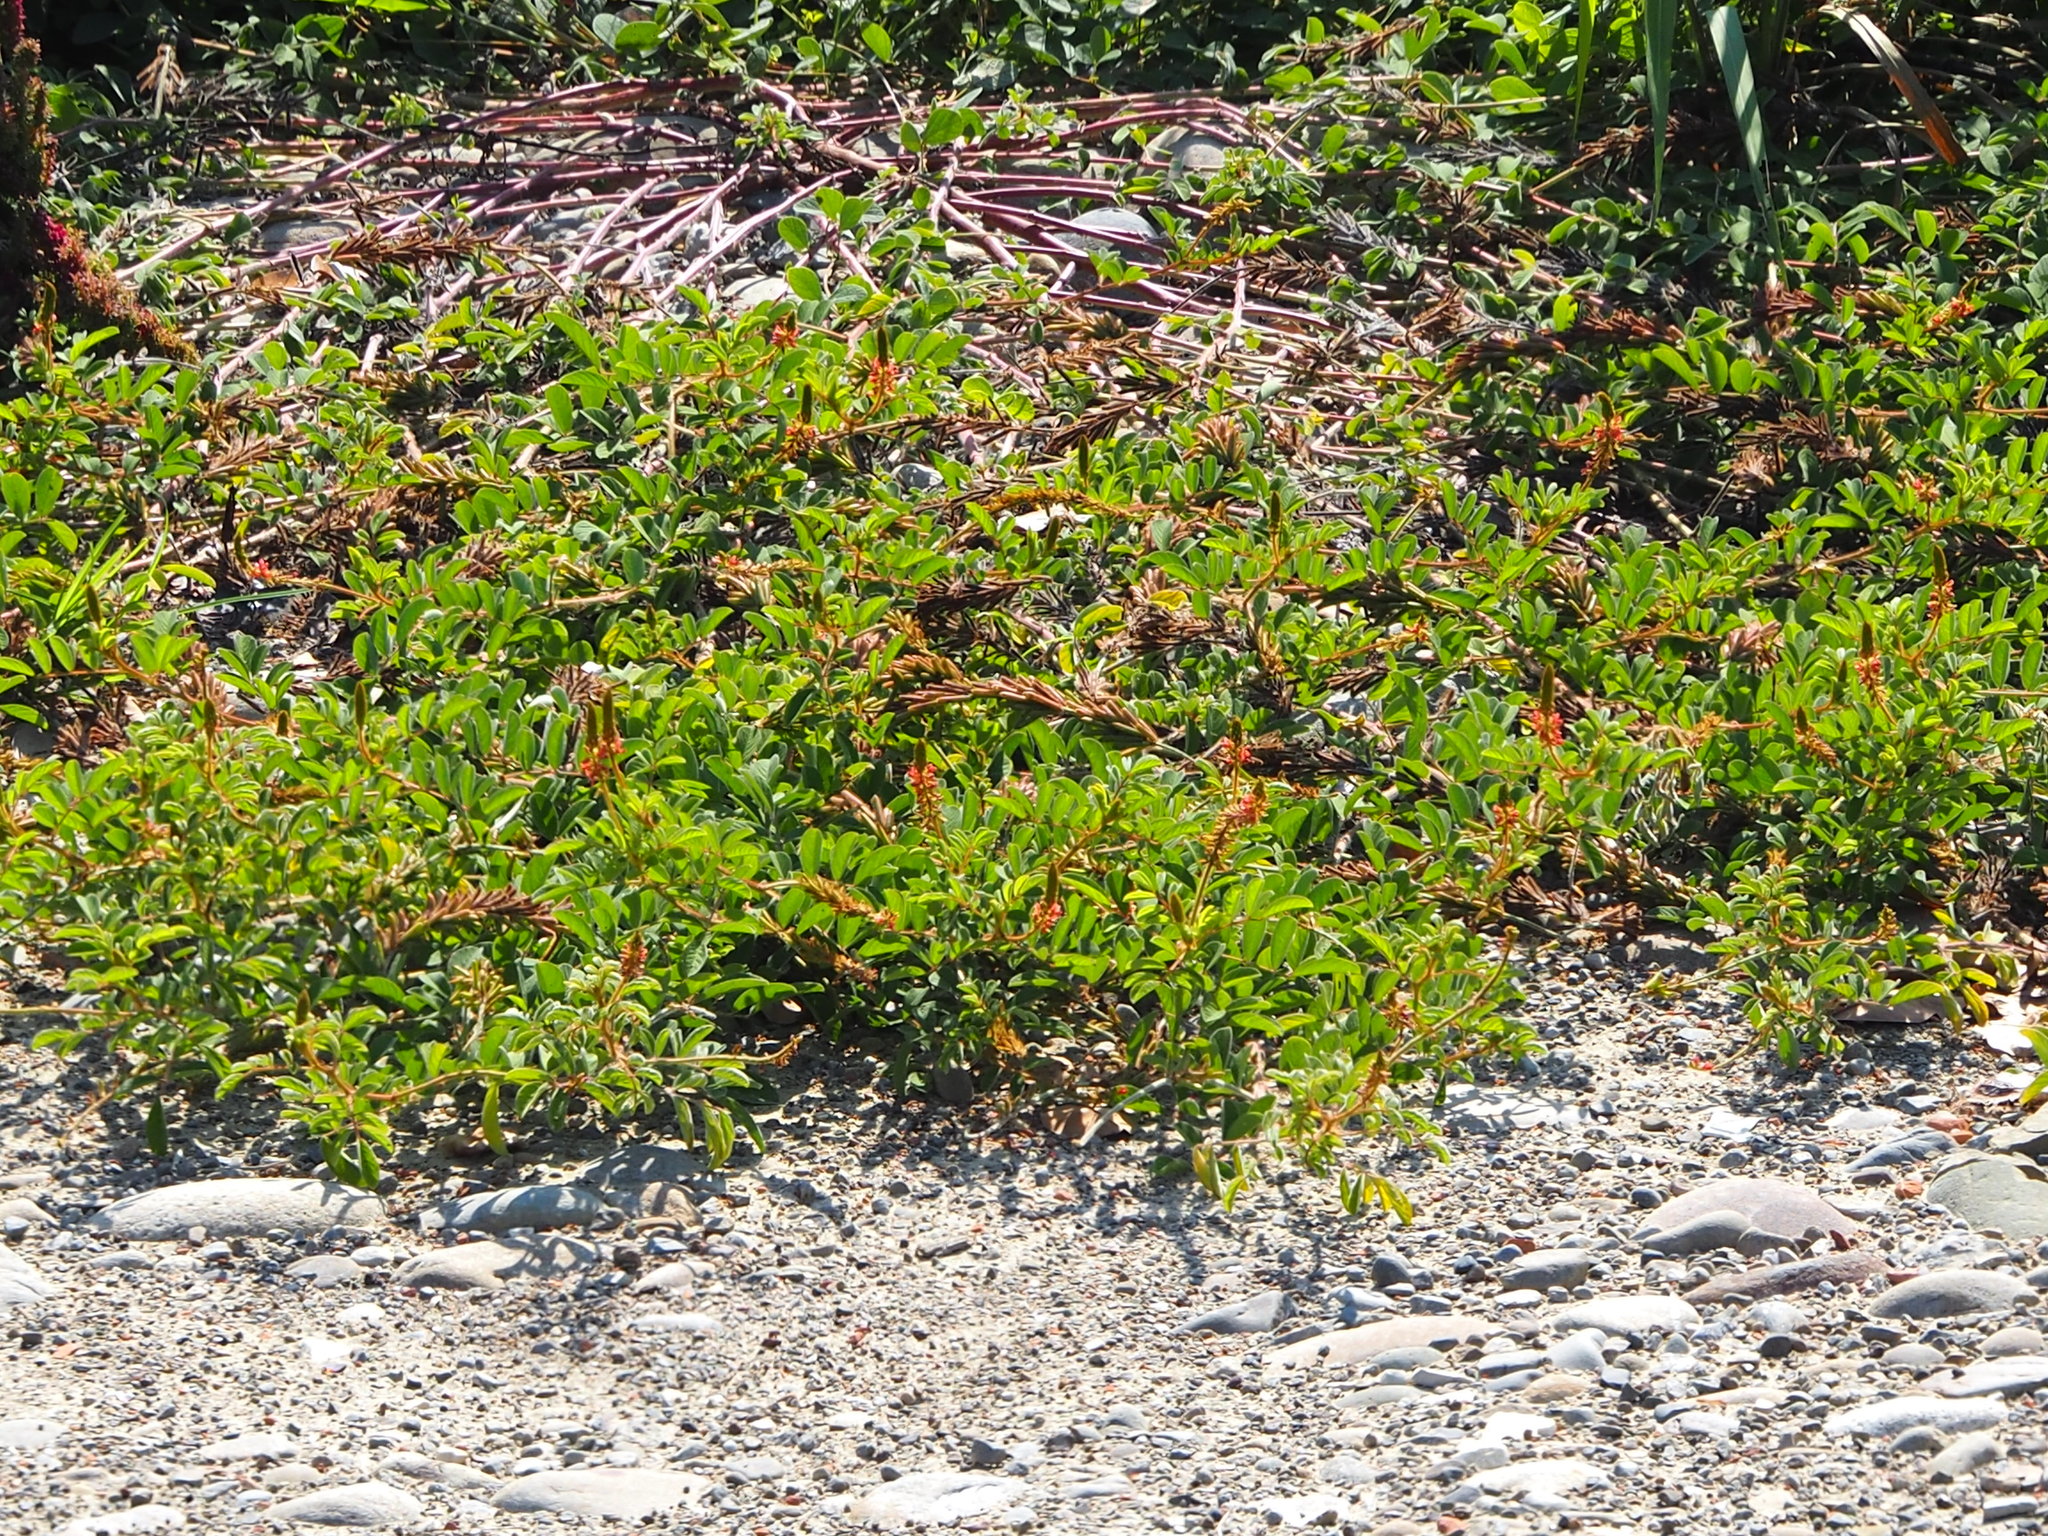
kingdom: Plantae
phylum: Tracheophyta
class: Magnoliopsida
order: Fabales
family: Fabaceae
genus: Indigofera
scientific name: Indigofera spicata
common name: Creeping indigo
